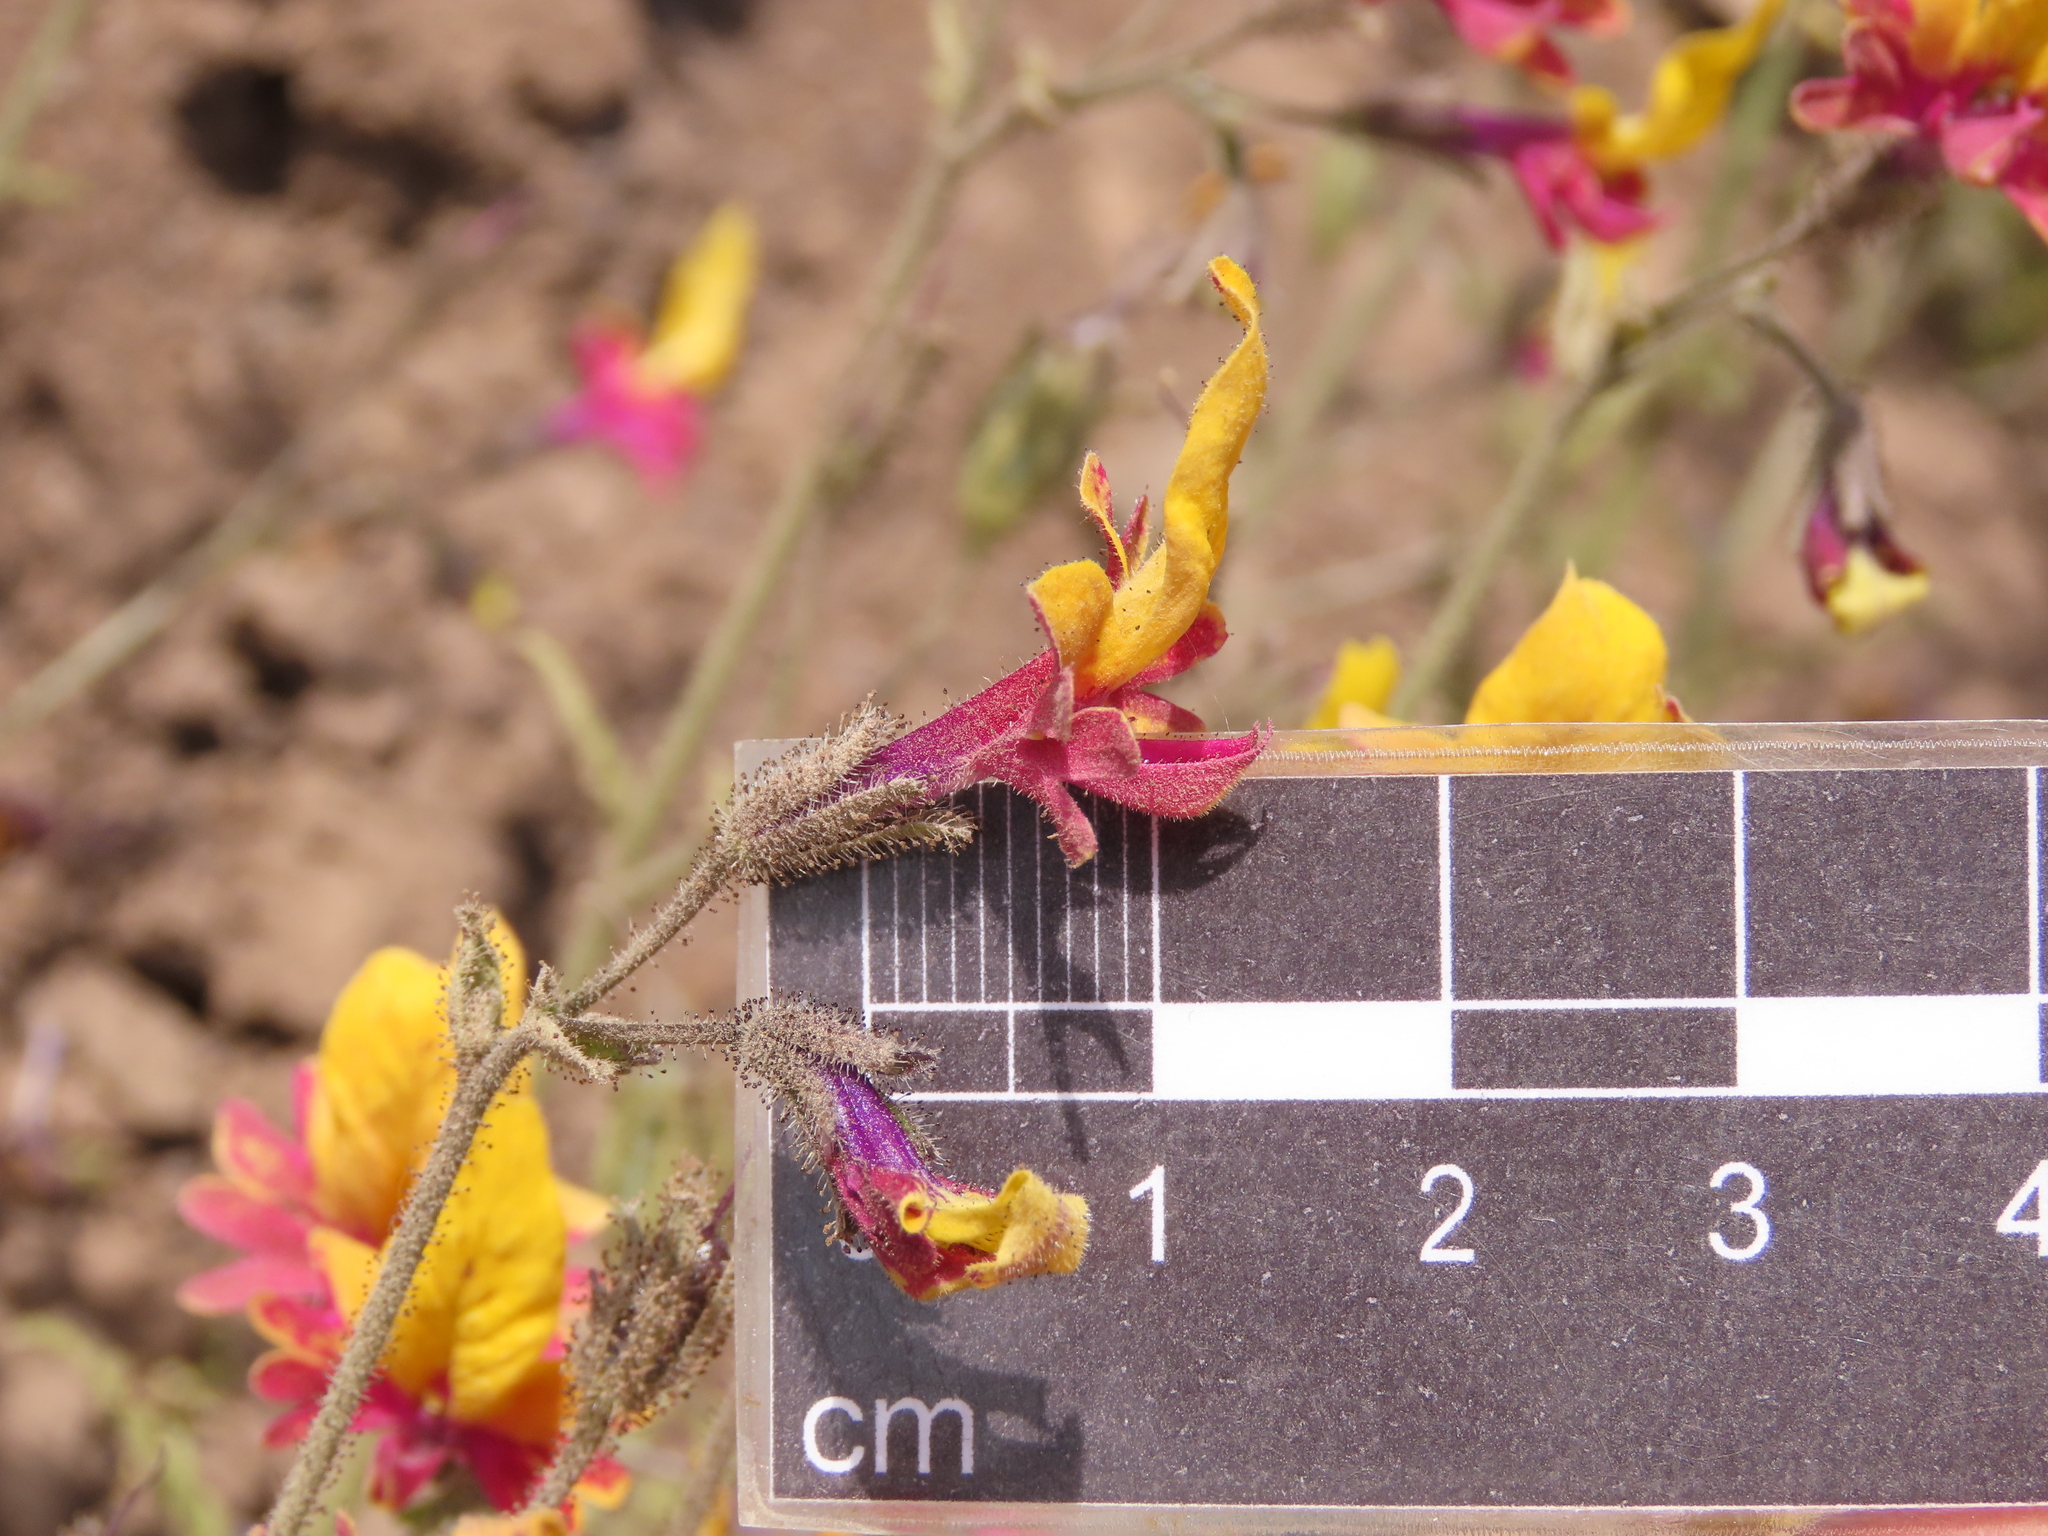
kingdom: Plantae
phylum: Tracheophyta
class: Magnoliopsida
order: Solanales
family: Solanaceae
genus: Schizanthus
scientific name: Schizanthus coccineus
